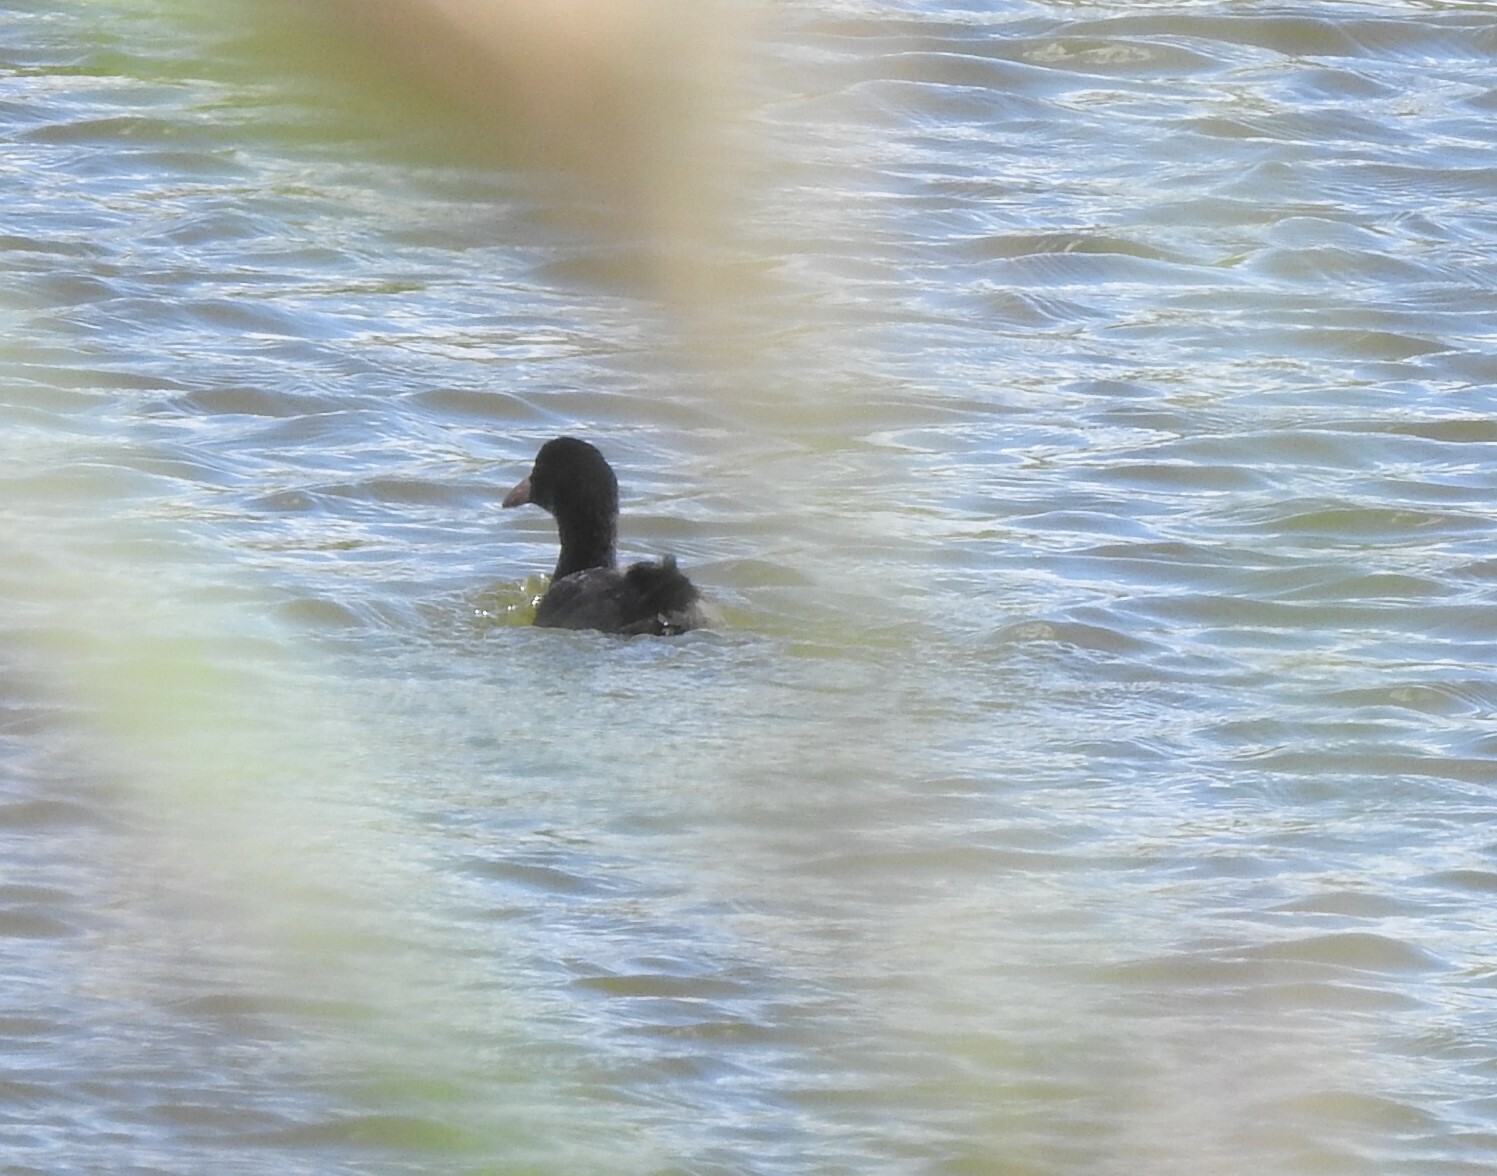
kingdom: Animalia
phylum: Chordata
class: Aves
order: Gruiformes
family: Rallidae
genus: Fulica
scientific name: Fulica atra
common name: Eurasian coot
